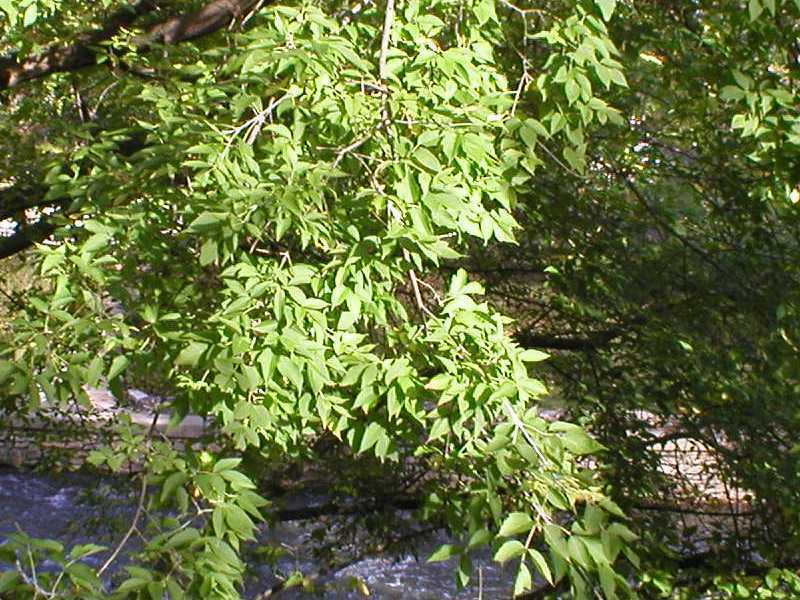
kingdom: Plantae
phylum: Tracheophyta
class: Magnoliopsida
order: Sapindales
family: Sapindaceae
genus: Acer
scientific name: Acer negundo
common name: Ashleaf maple
